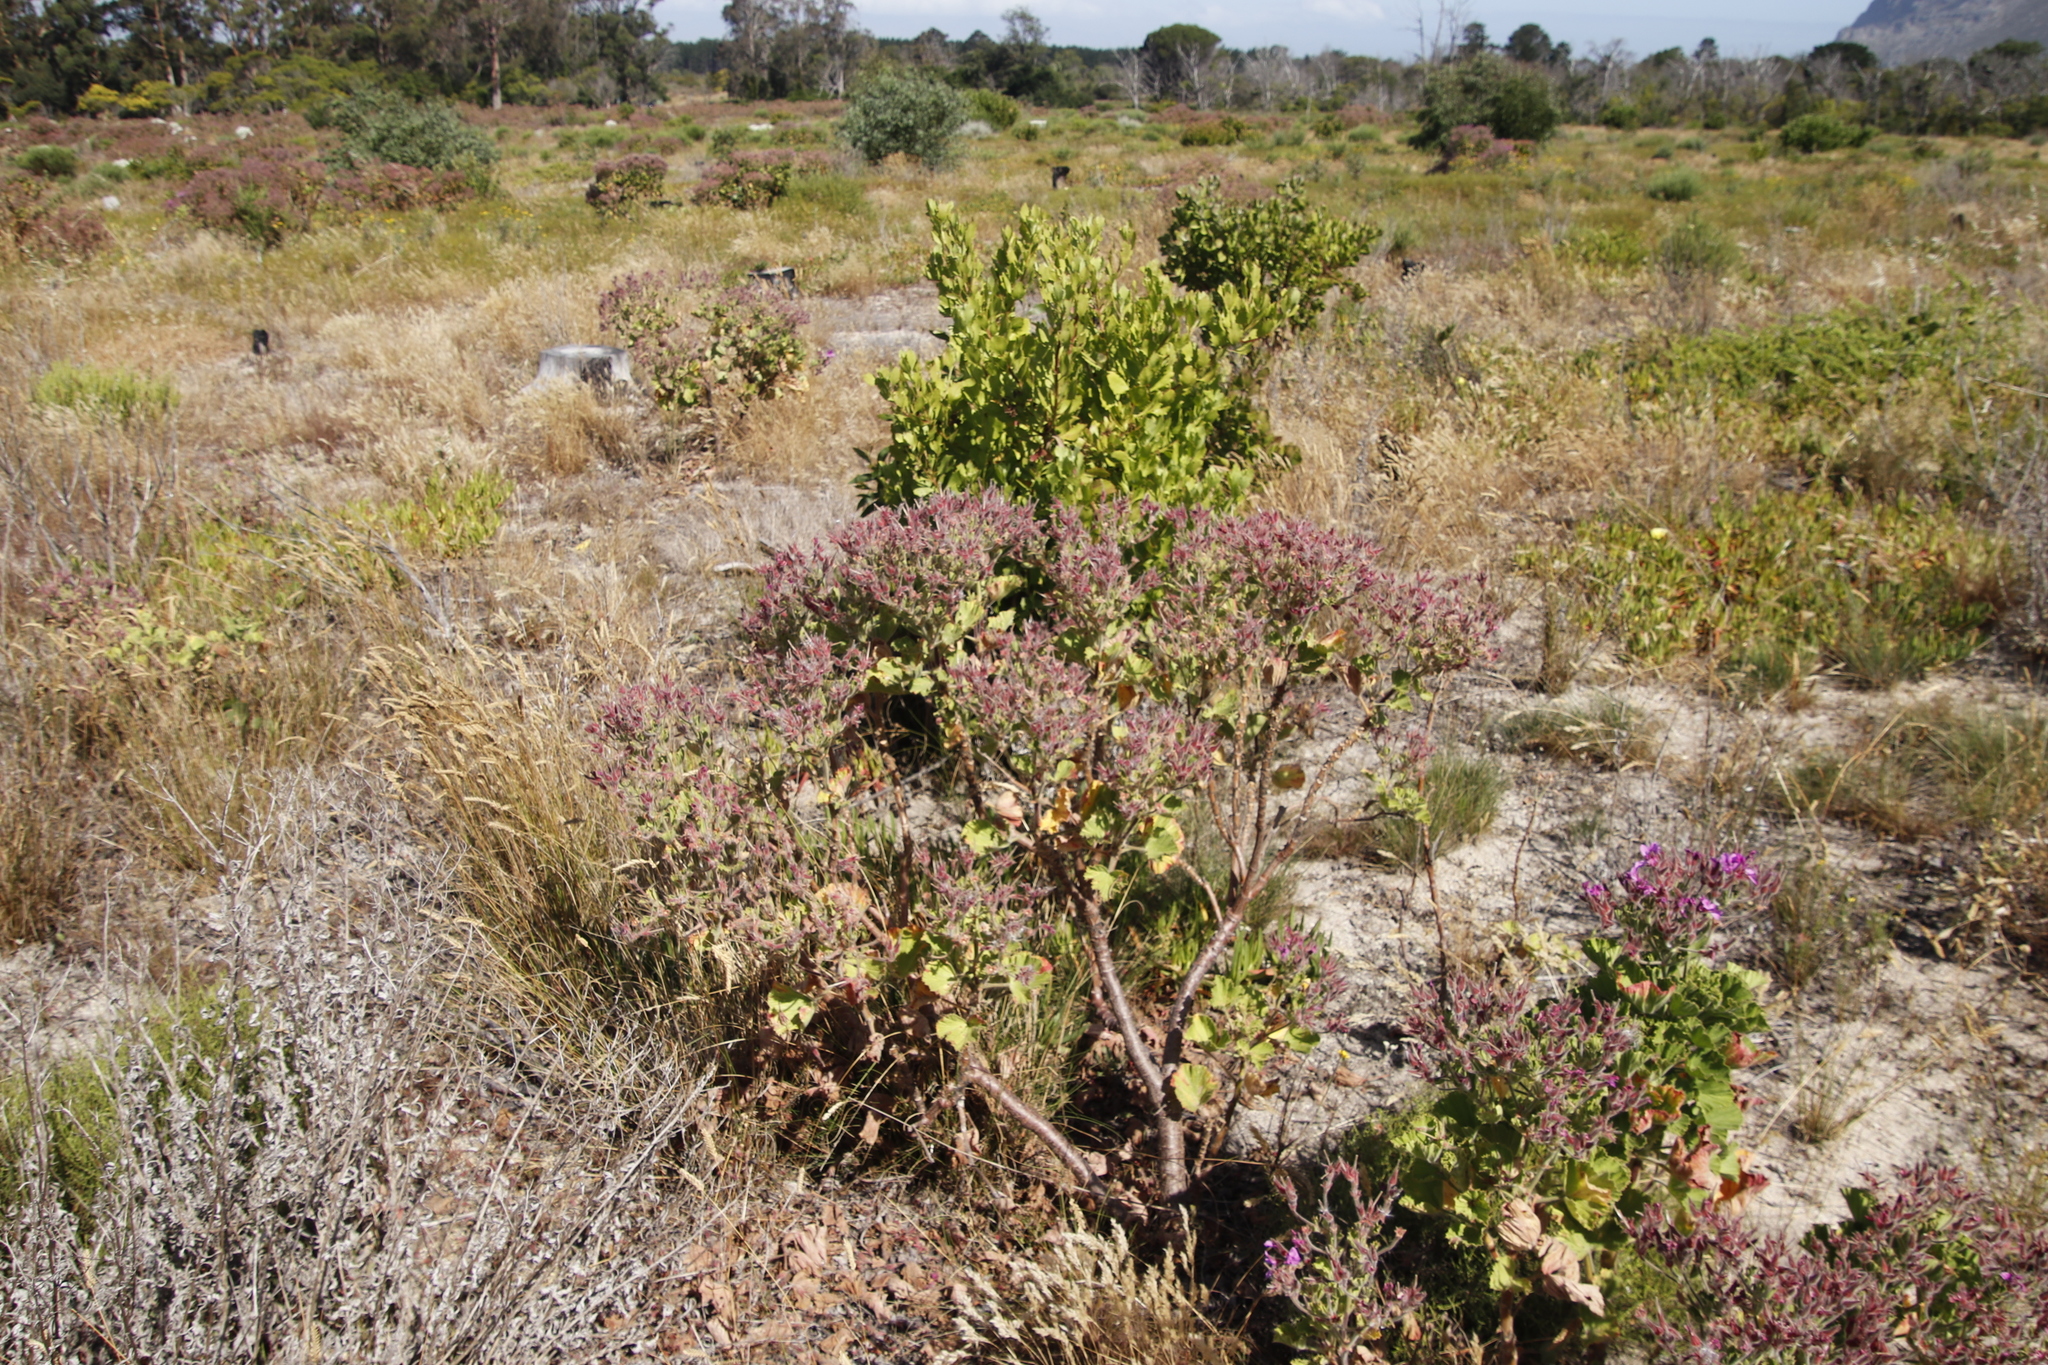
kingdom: Plantae
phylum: Tracheophyta
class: Magnoliopsida
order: Geraniales
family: Geraniaceae
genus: Pelargonium
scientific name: Pelargonium cucullatum
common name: Tree pelargonium
